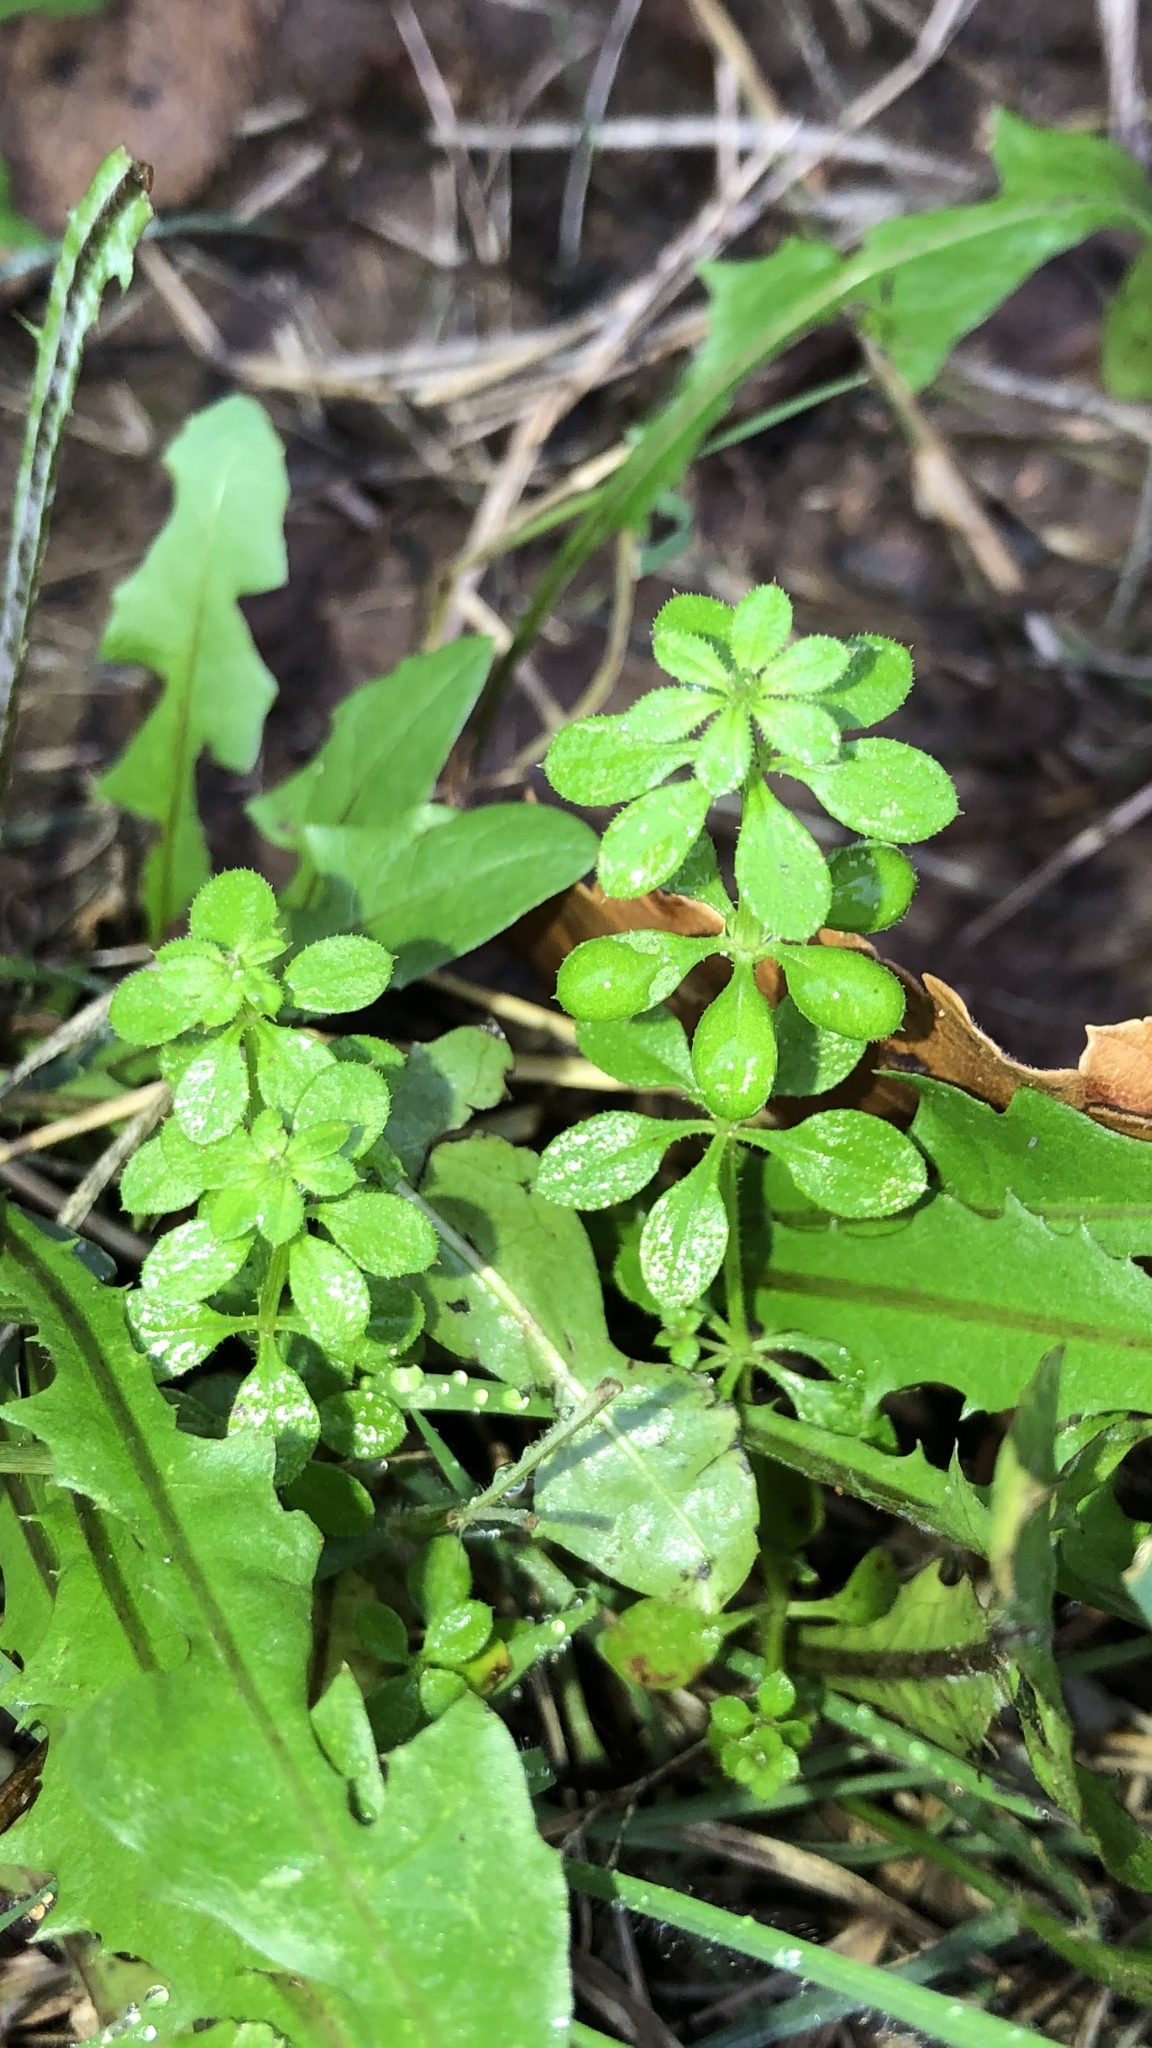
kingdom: Plantae
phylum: Tracheophyta
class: Magnoliopsida
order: Gentianales
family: Rubiaceae
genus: Galium
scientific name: Galium aparine
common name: Cleavers
